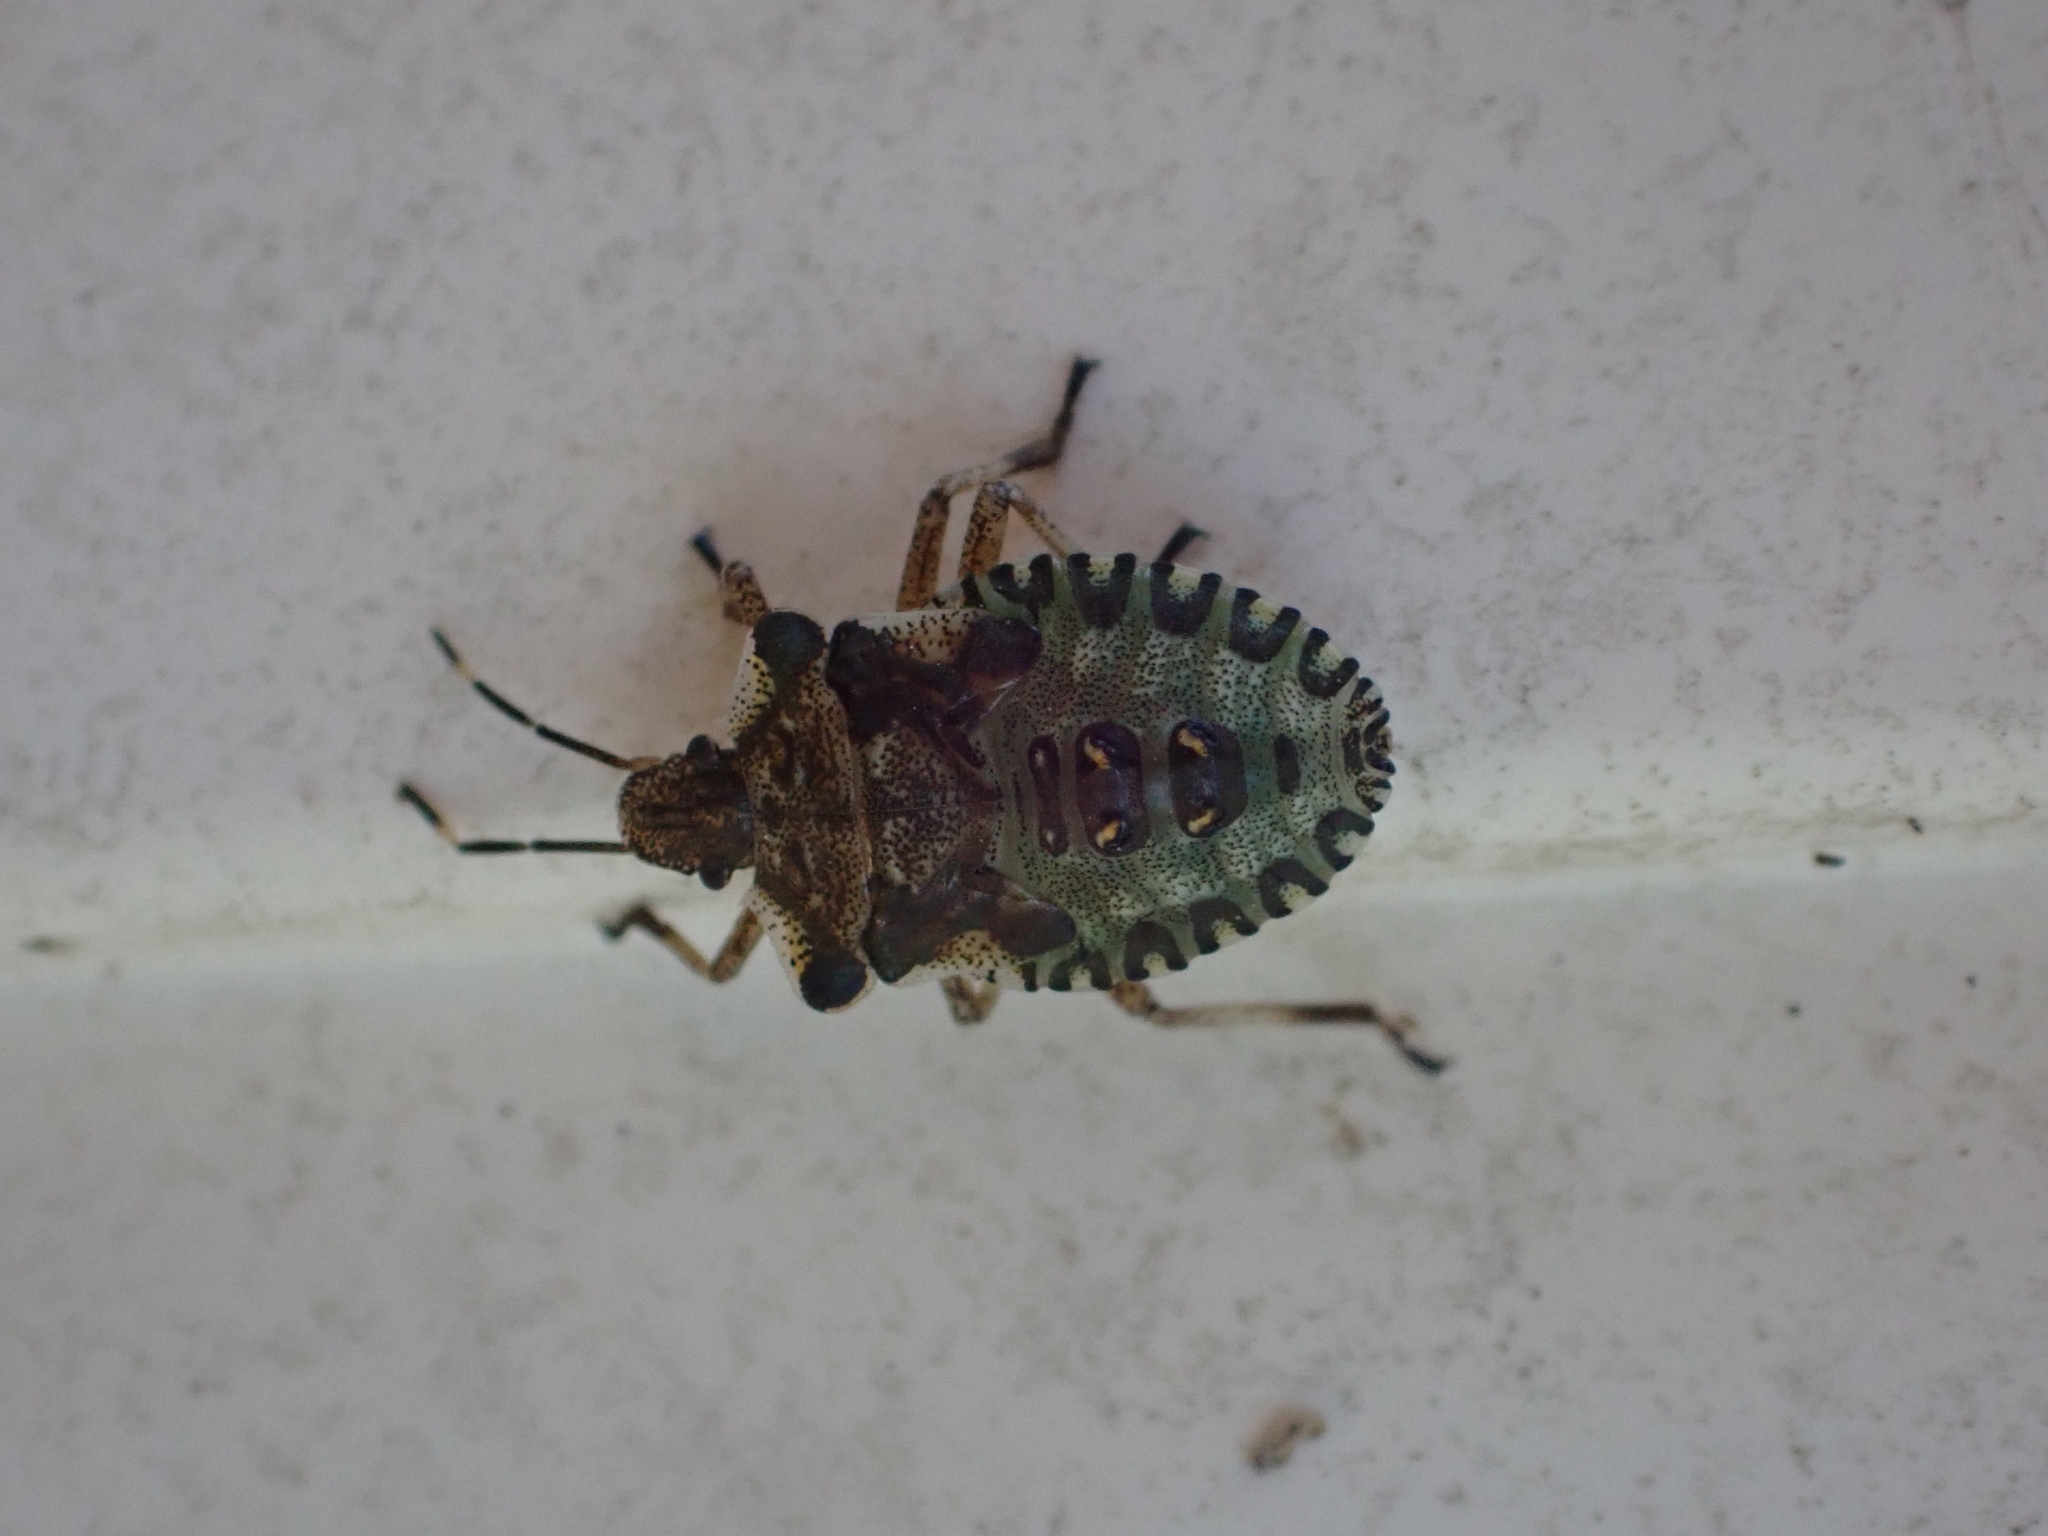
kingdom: Animalia
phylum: Arthropoda
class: Insecta
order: Hemiptera
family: Pentatomidae
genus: Pentatoma
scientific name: Pentatoma rufipes
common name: Forest bug
